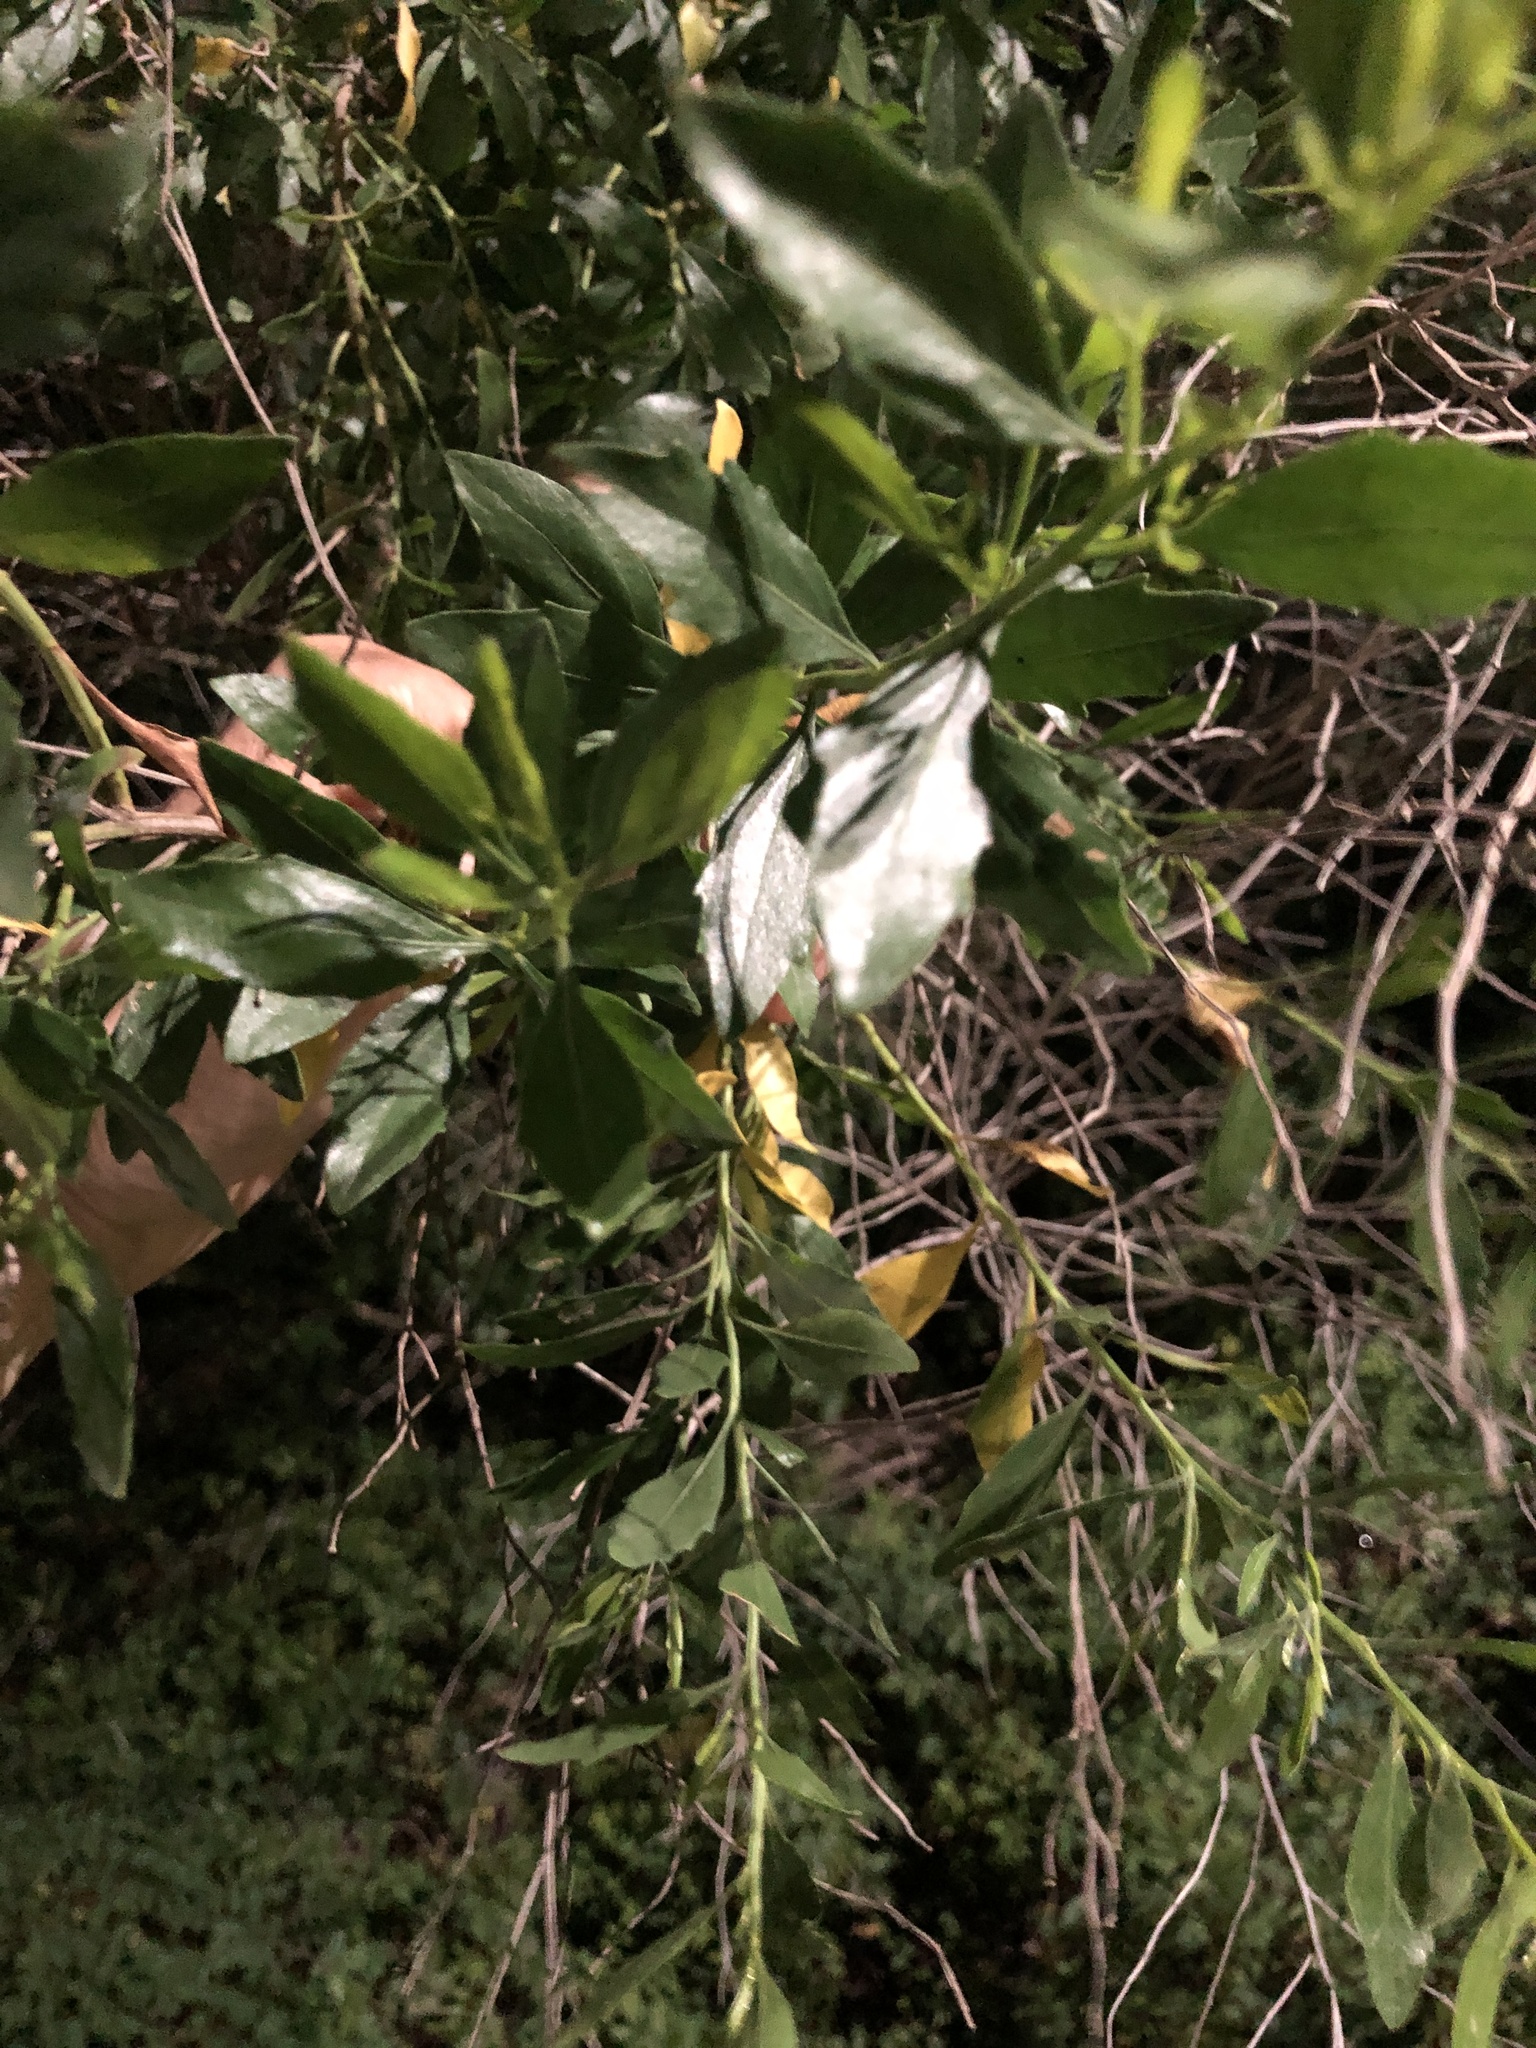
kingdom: Plantae
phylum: Tracheophyta
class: Magnoliopsida
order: Asterales
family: Asteraceae
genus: Baccharis
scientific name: Baccharis halimifolia
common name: Eastern baccharis
